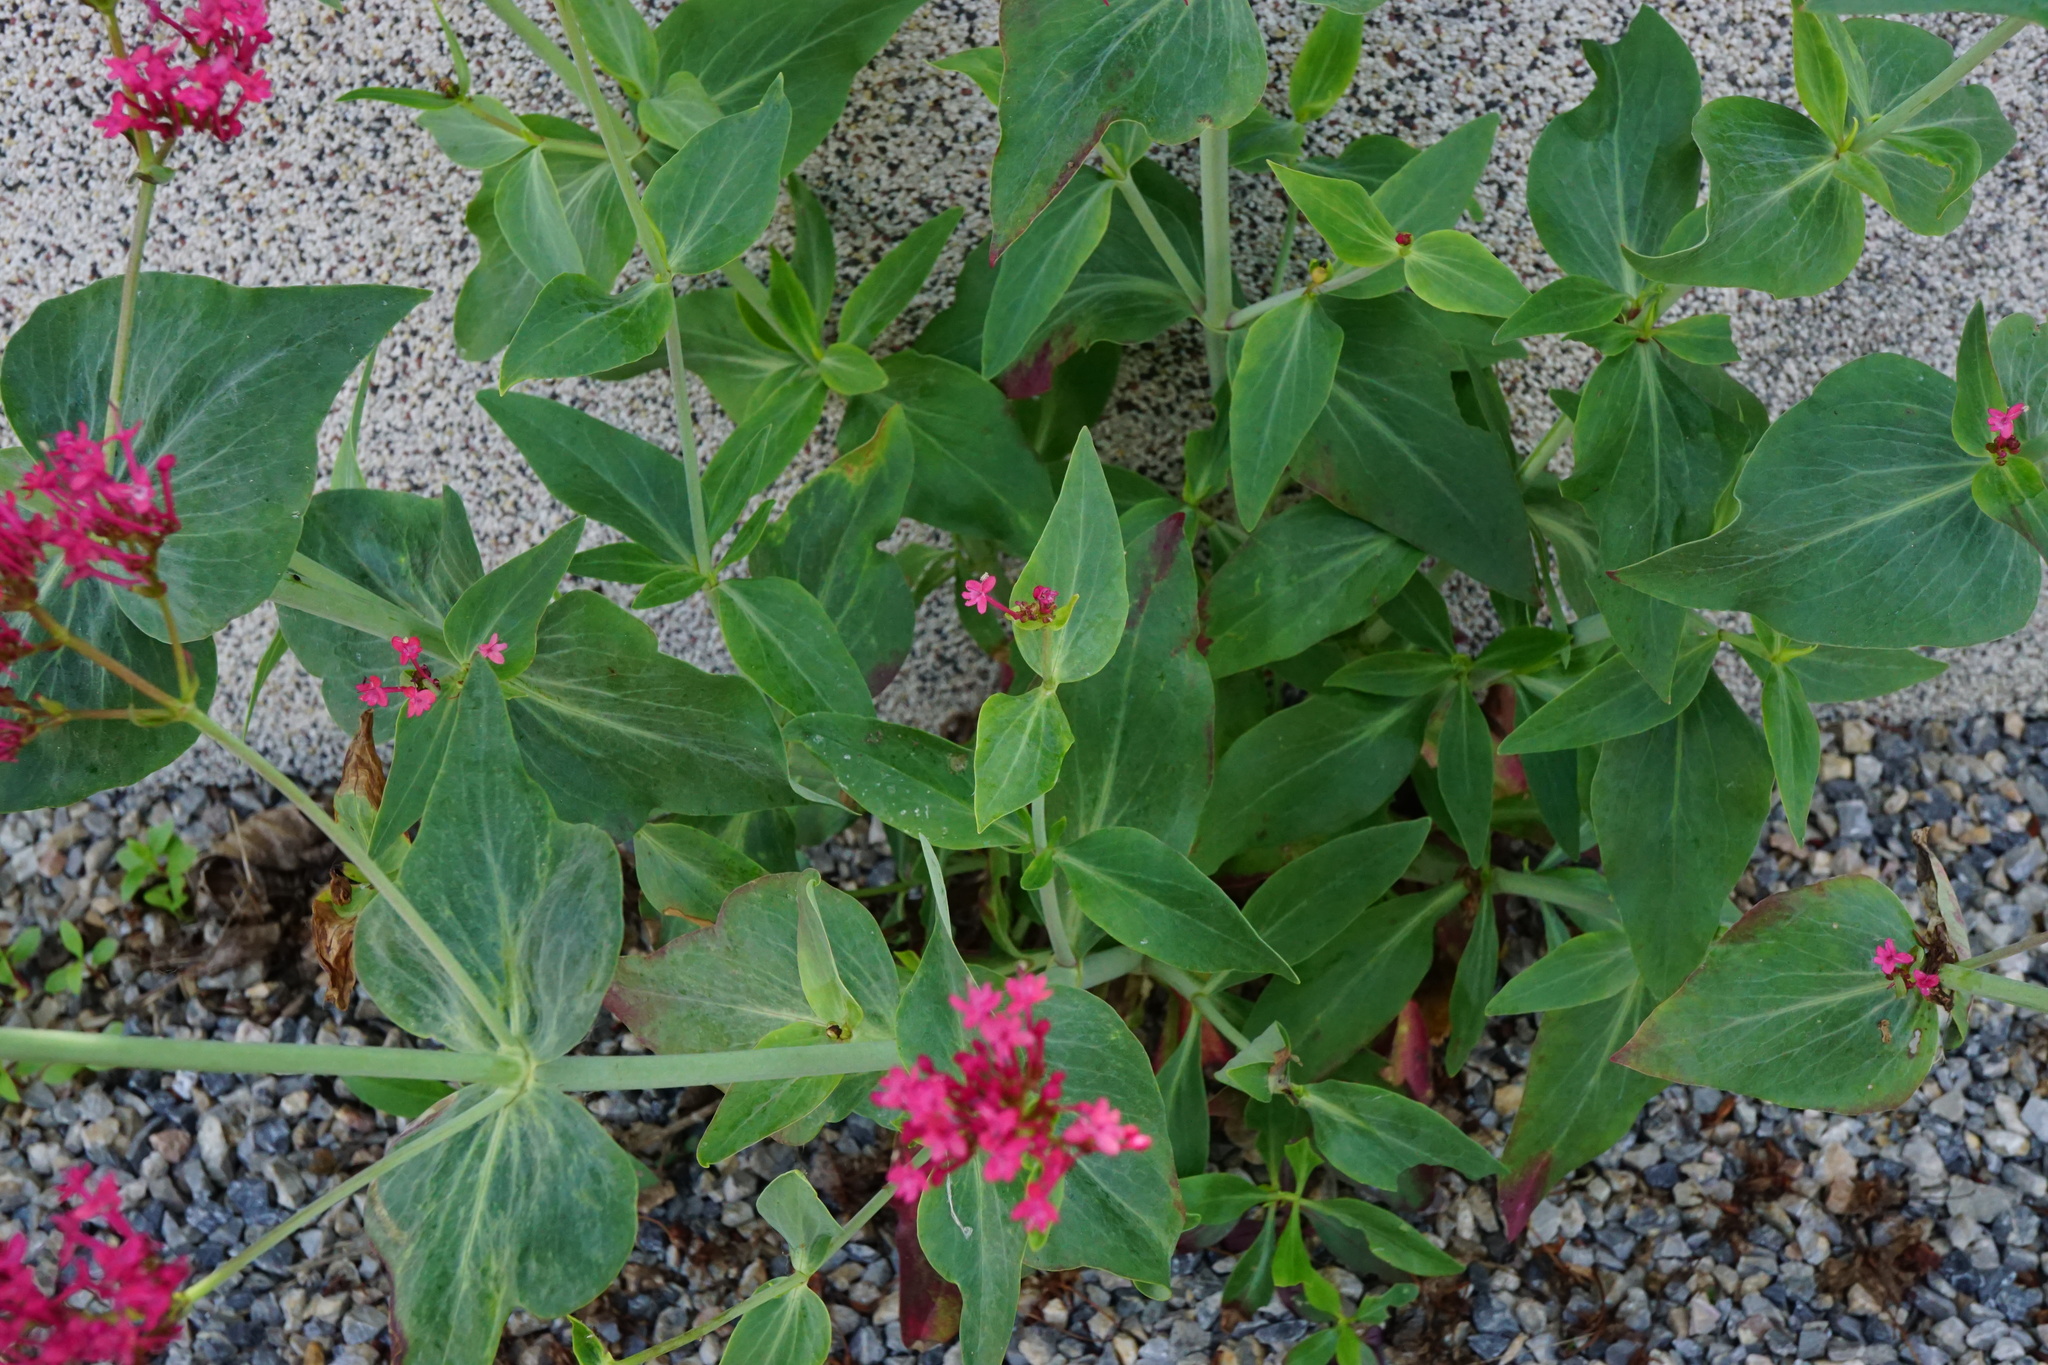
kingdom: Plantae
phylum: Tracheophyta
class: Magnoliopsida
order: Dipsacales
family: Caprifoliaceae
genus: Centranthus
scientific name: Centranthus ruber
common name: Red valerian
